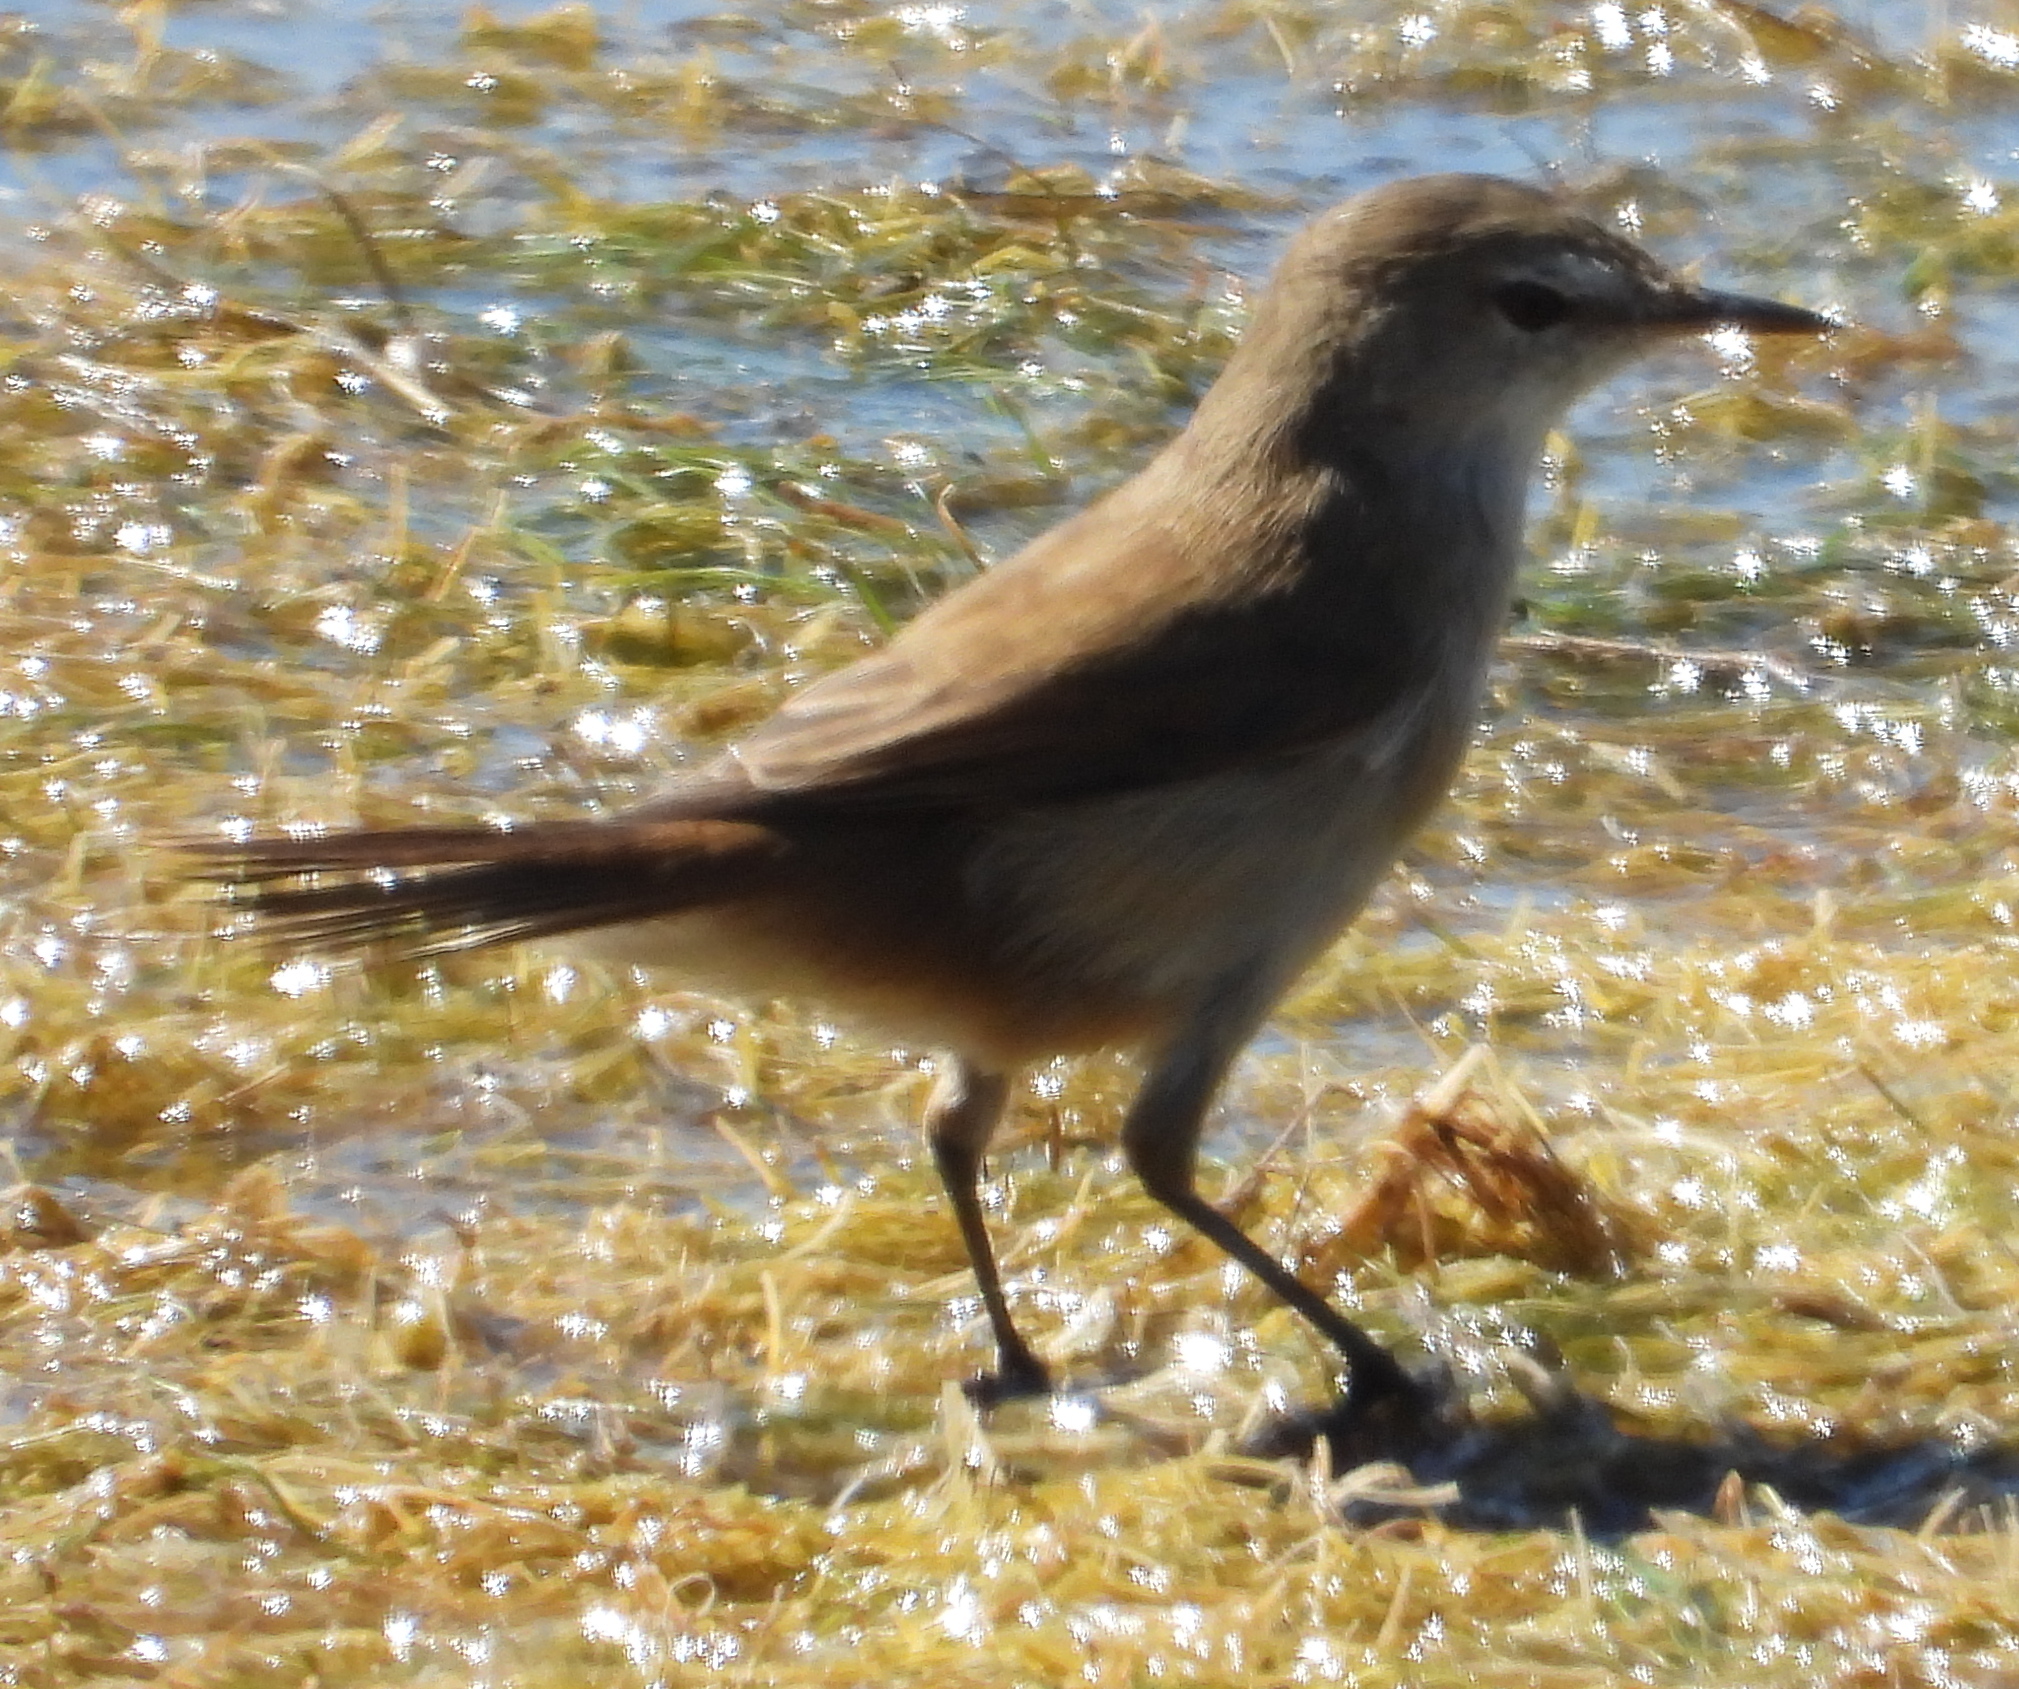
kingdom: Animalia
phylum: Chordata
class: Aves
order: Passeriformes
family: Acrocephalidae
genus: Acrocephalus
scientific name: Acrocephalus gracilirostris
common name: Lesser swamp warbler
